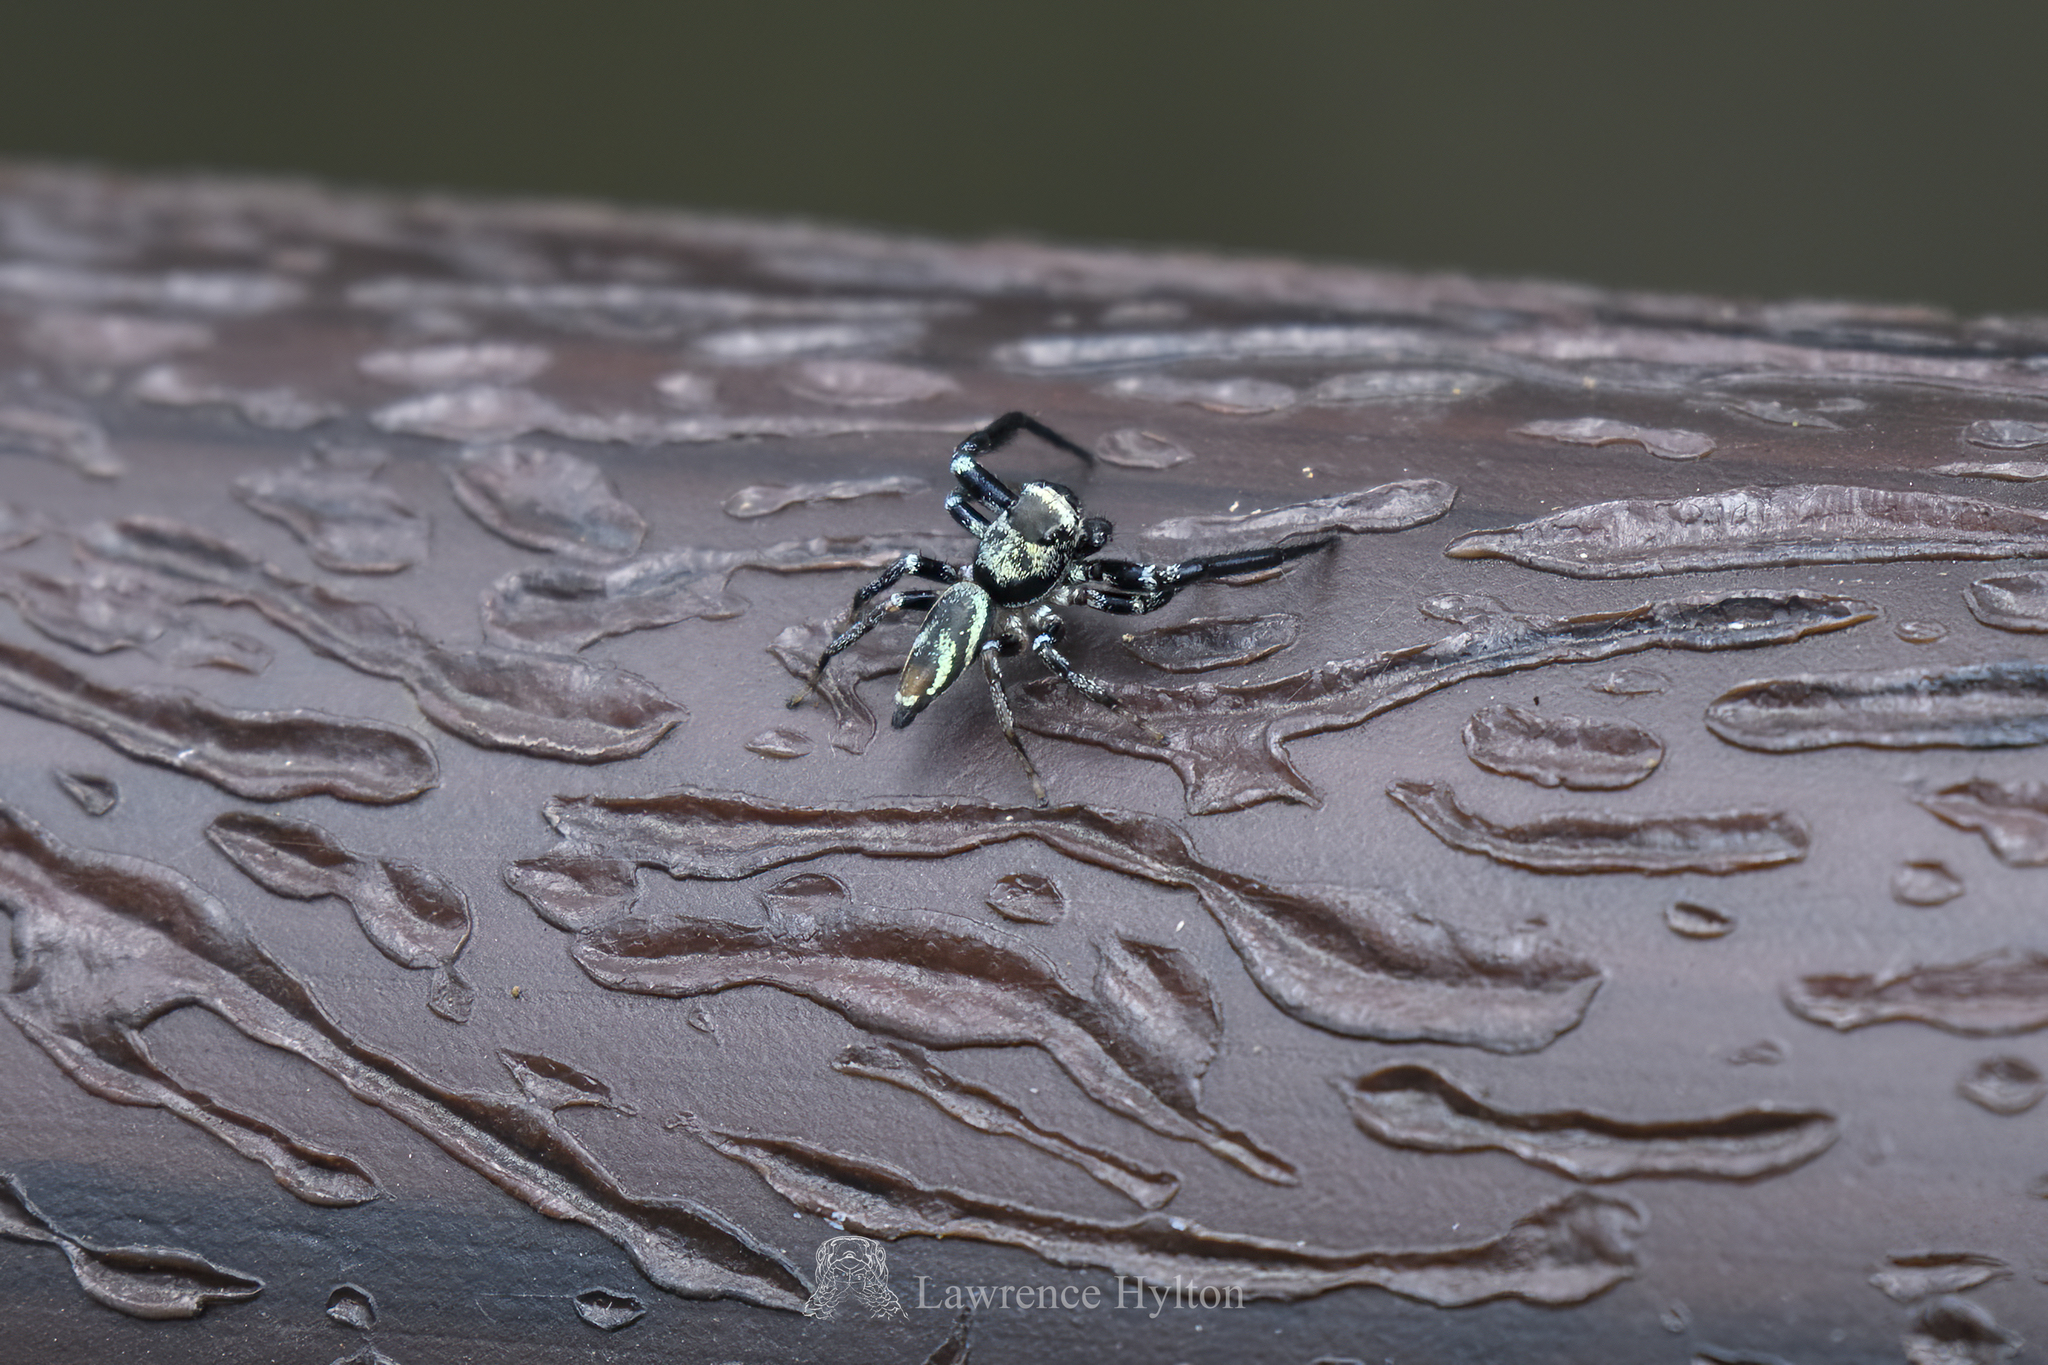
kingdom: Animalia
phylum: Arthropoda
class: Arachnida
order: Araneae
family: Salticidae
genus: Thiania
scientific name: Thiania bhamoensis
